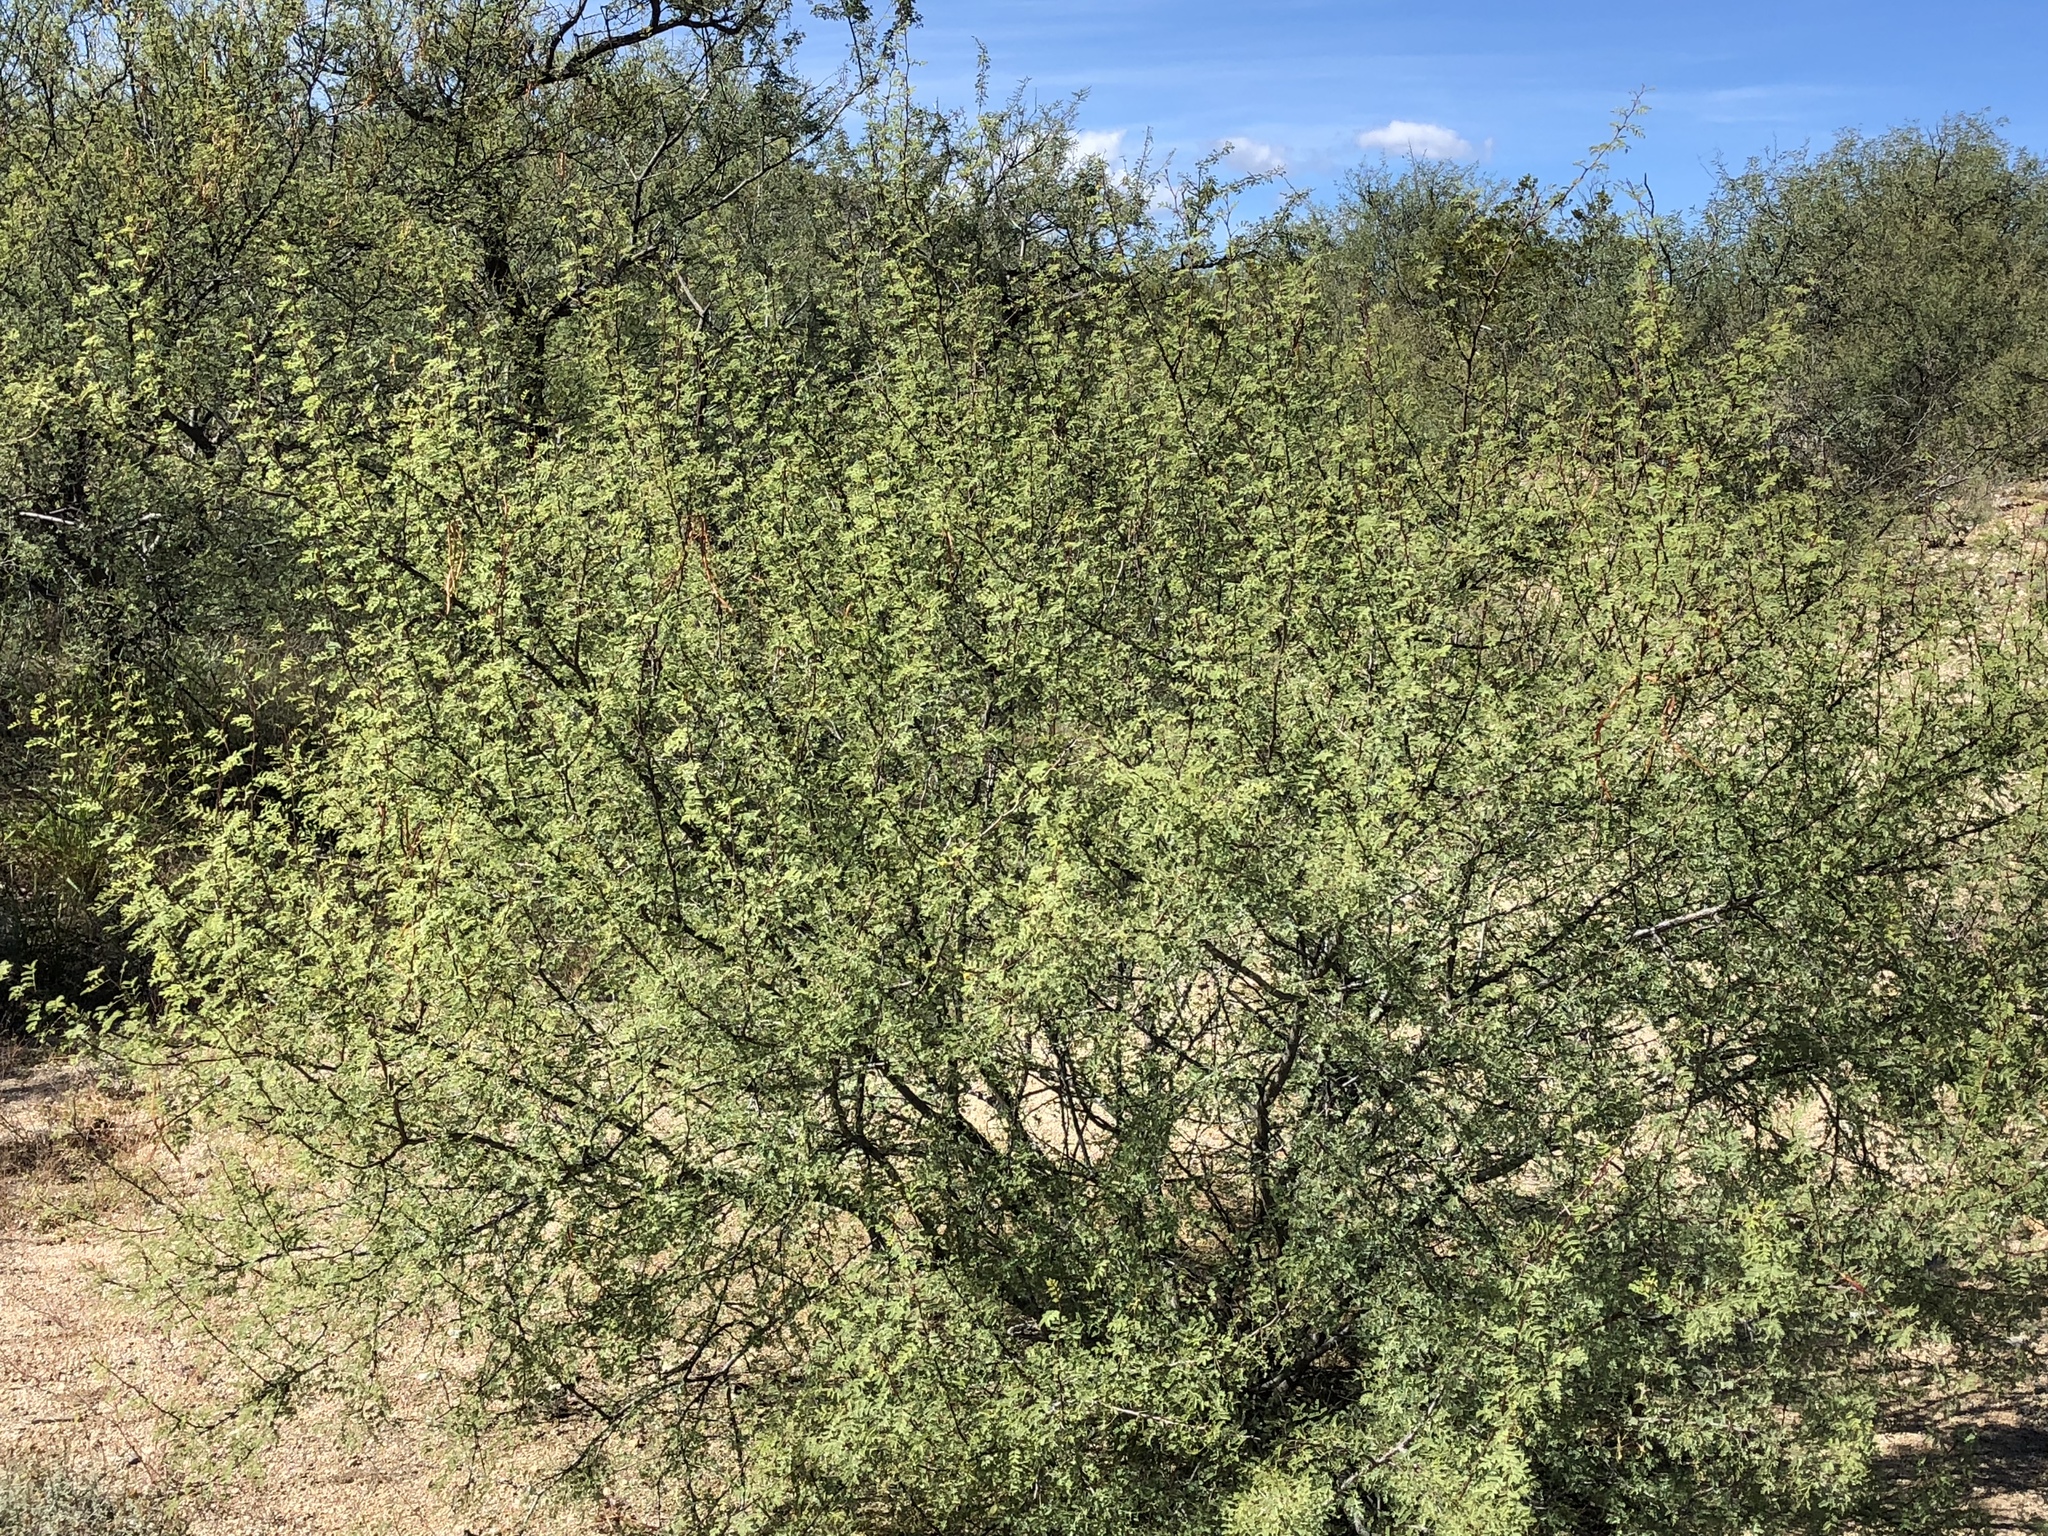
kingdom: Plantae
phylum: Tracheophyta
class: Magnoliopsida
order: Fabales
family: Fabaceae
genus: Vachellia
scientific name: Vachellia constricta
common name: Mescat acacia
